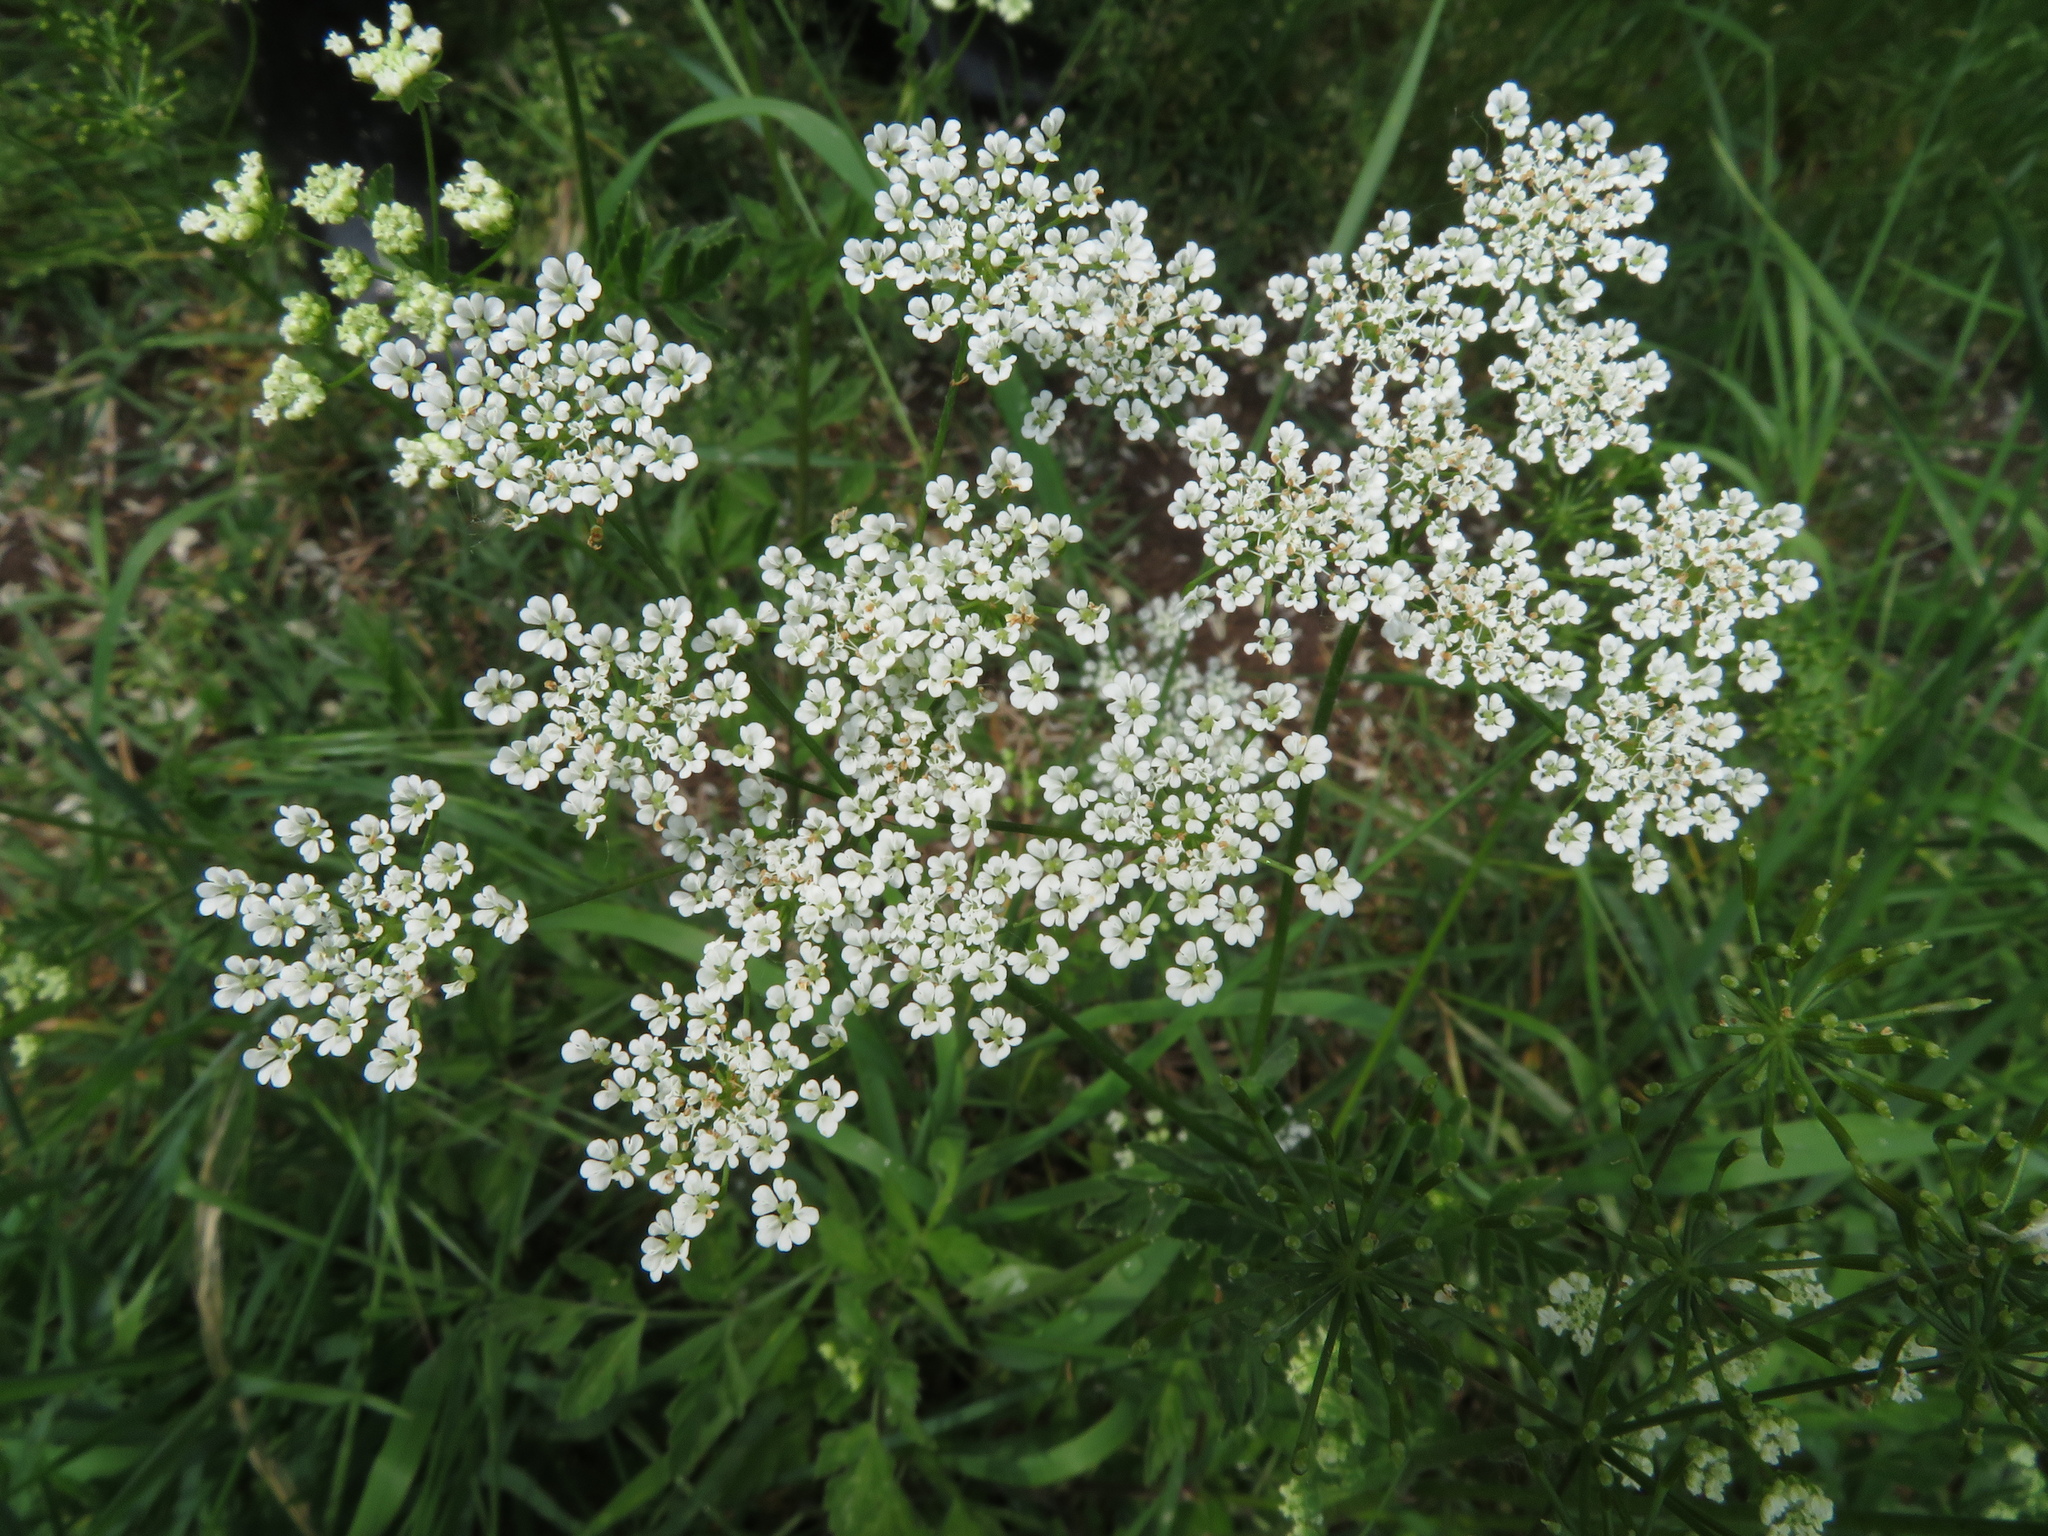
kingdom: Plantae
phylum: Tracheophyta
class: Magnoliopsida
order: Apiales
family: Apiaceae
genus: Chaerophyllum
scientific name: Chaerophyllum temulum
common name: Rough chervil
